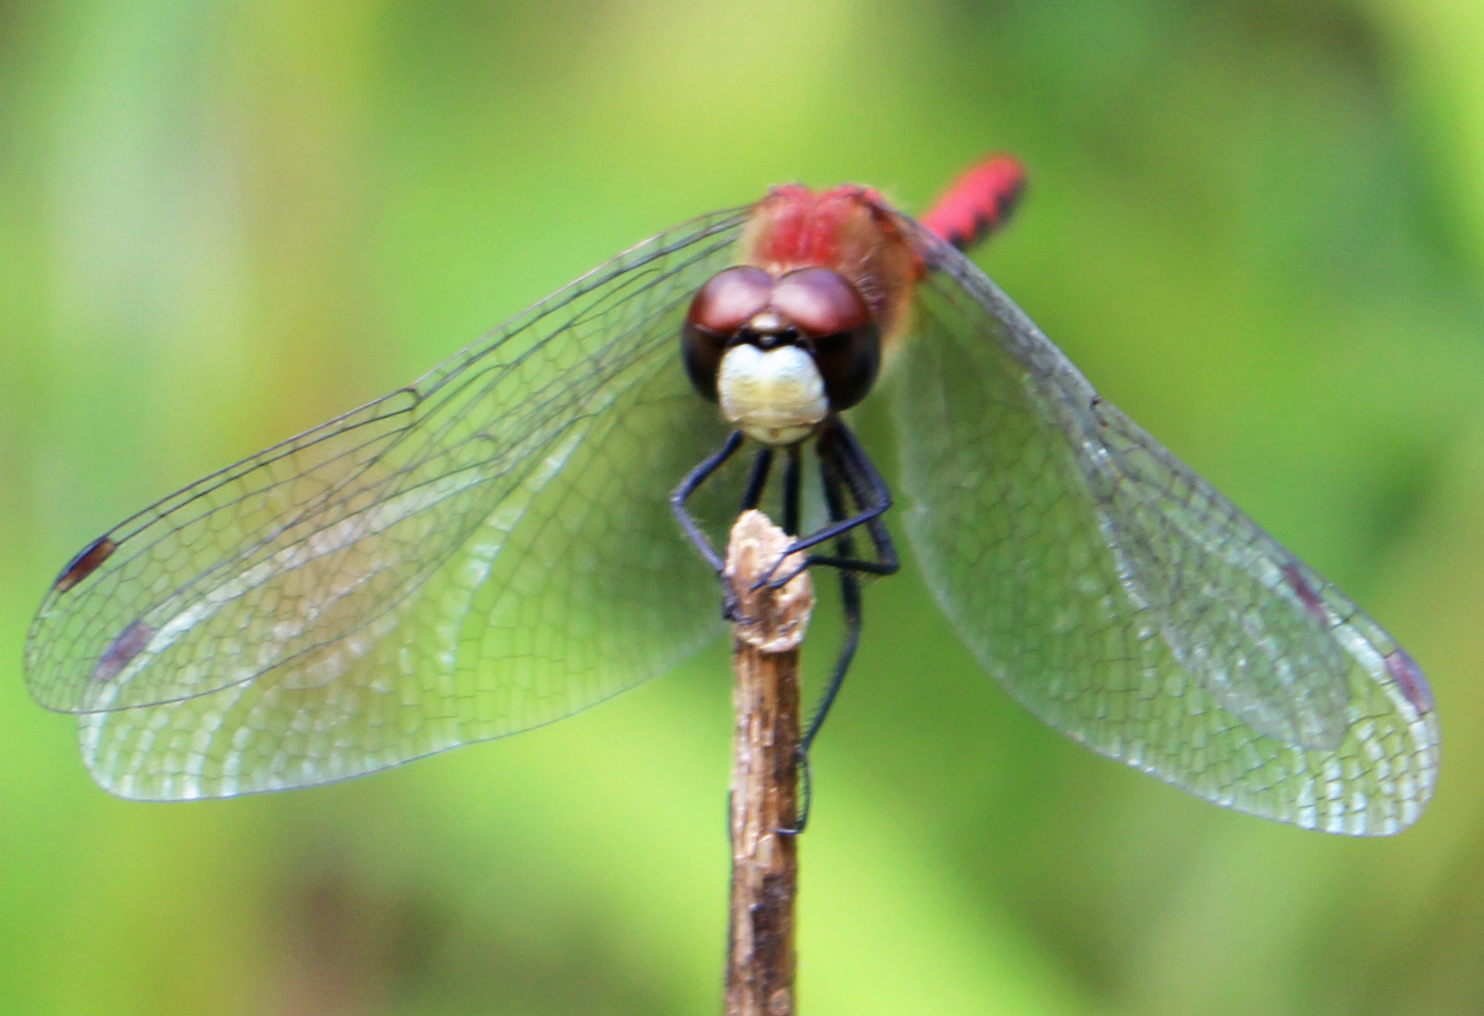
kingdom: Animalia
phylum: Arthropoda
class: Insecta
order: Odonata
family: Libellulidae
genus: Sympetrum
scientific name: Sympetrum obtrusum
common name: White-faced meadowhawk
